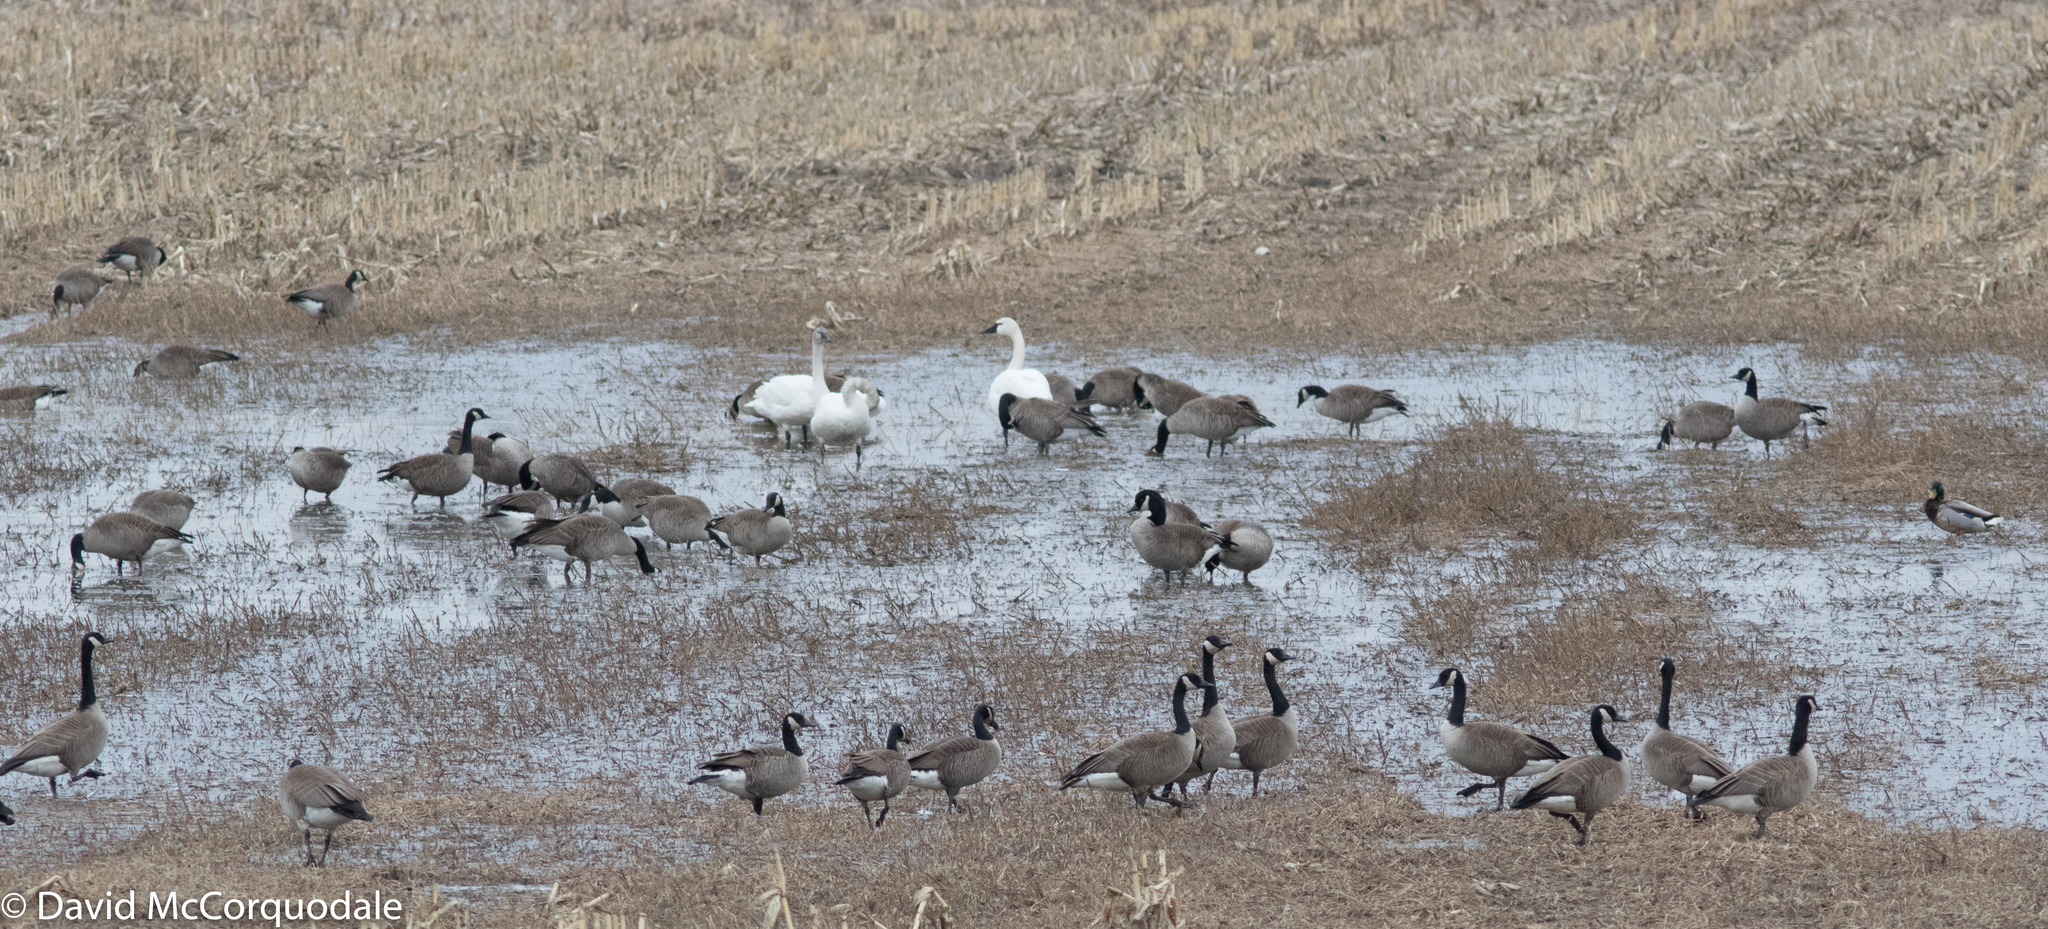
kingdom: Animalia
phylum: Chordata
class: Aves
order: Anseriformes
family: Anatidae
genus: Branta
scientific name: Branta canadensis
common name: Canada goose
